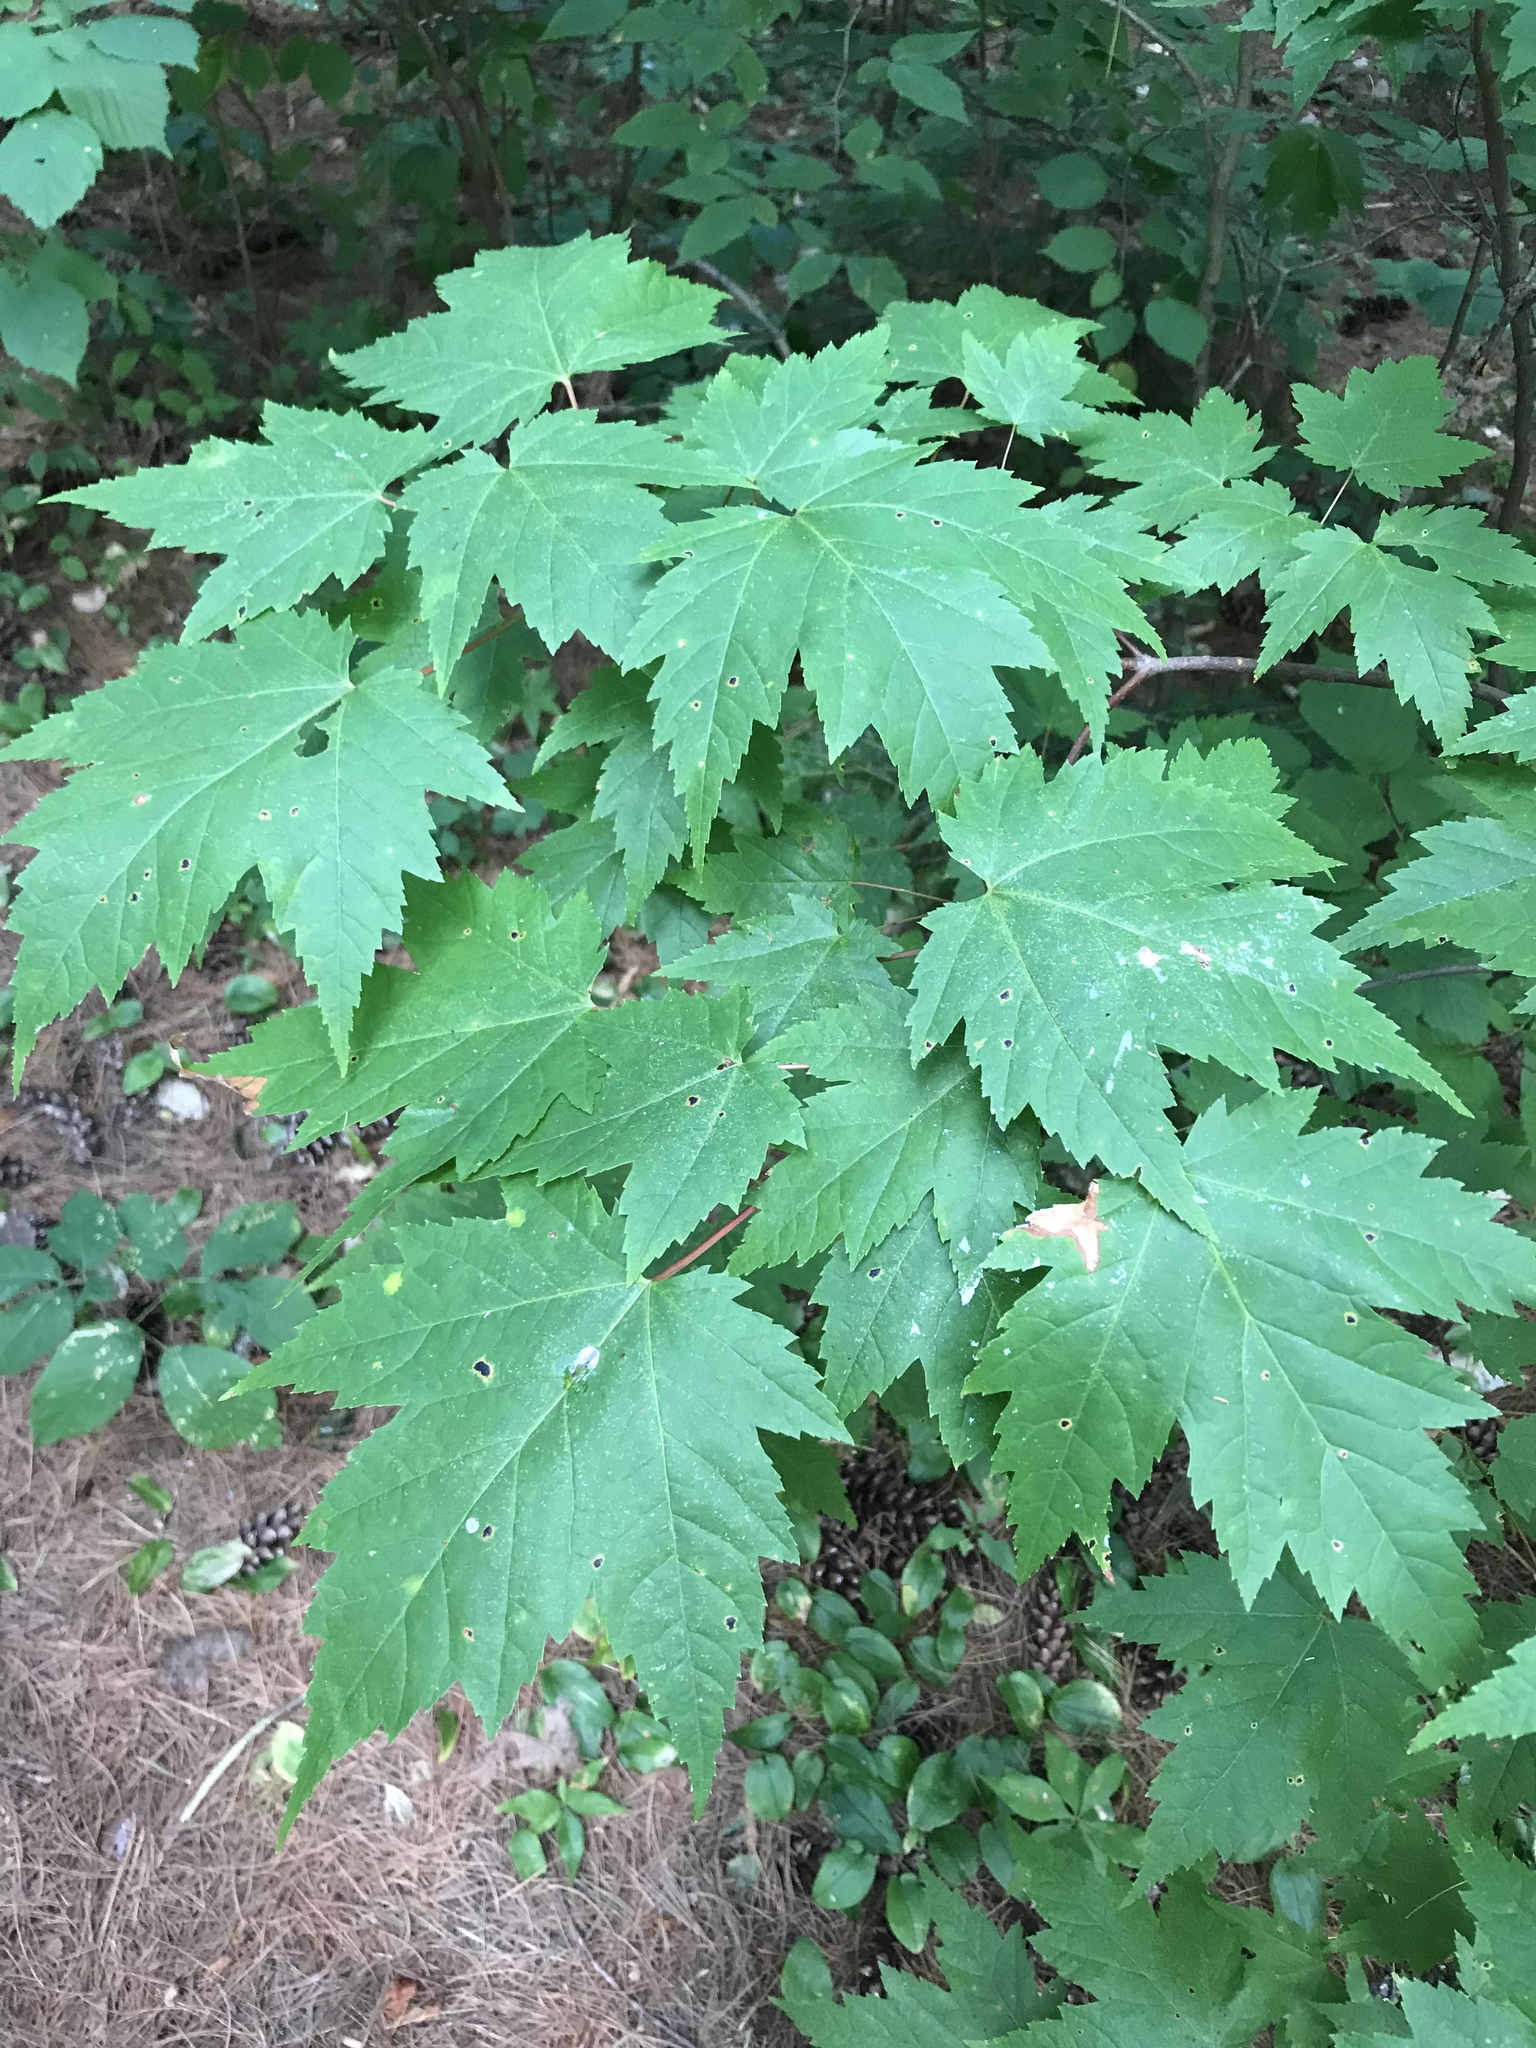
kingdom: Plantae
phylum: Tracheophyta
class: Magnoliopsida
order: Sapindales
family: Sapindaceae
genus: Acer
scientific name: Acer rubrum
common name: Red maple
